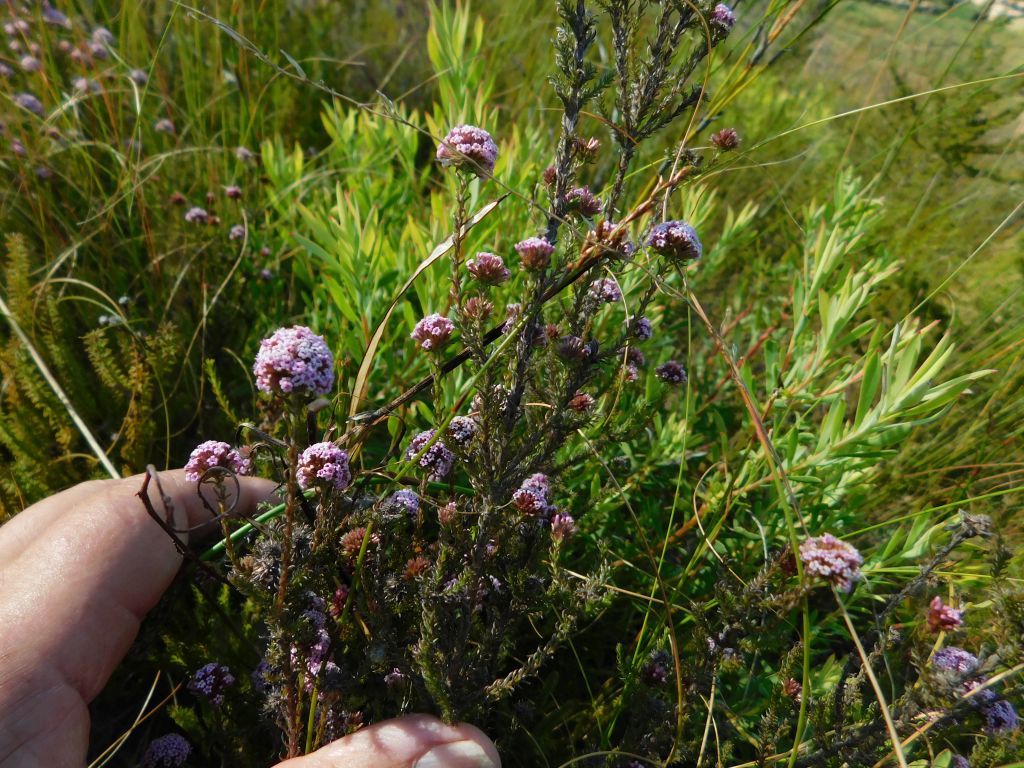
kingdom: Plantae
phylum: Tracheophyta
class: Magnoliopsida
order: Asterales
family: Asteraceae
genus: Stoebe
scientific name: Stoebe capitata
